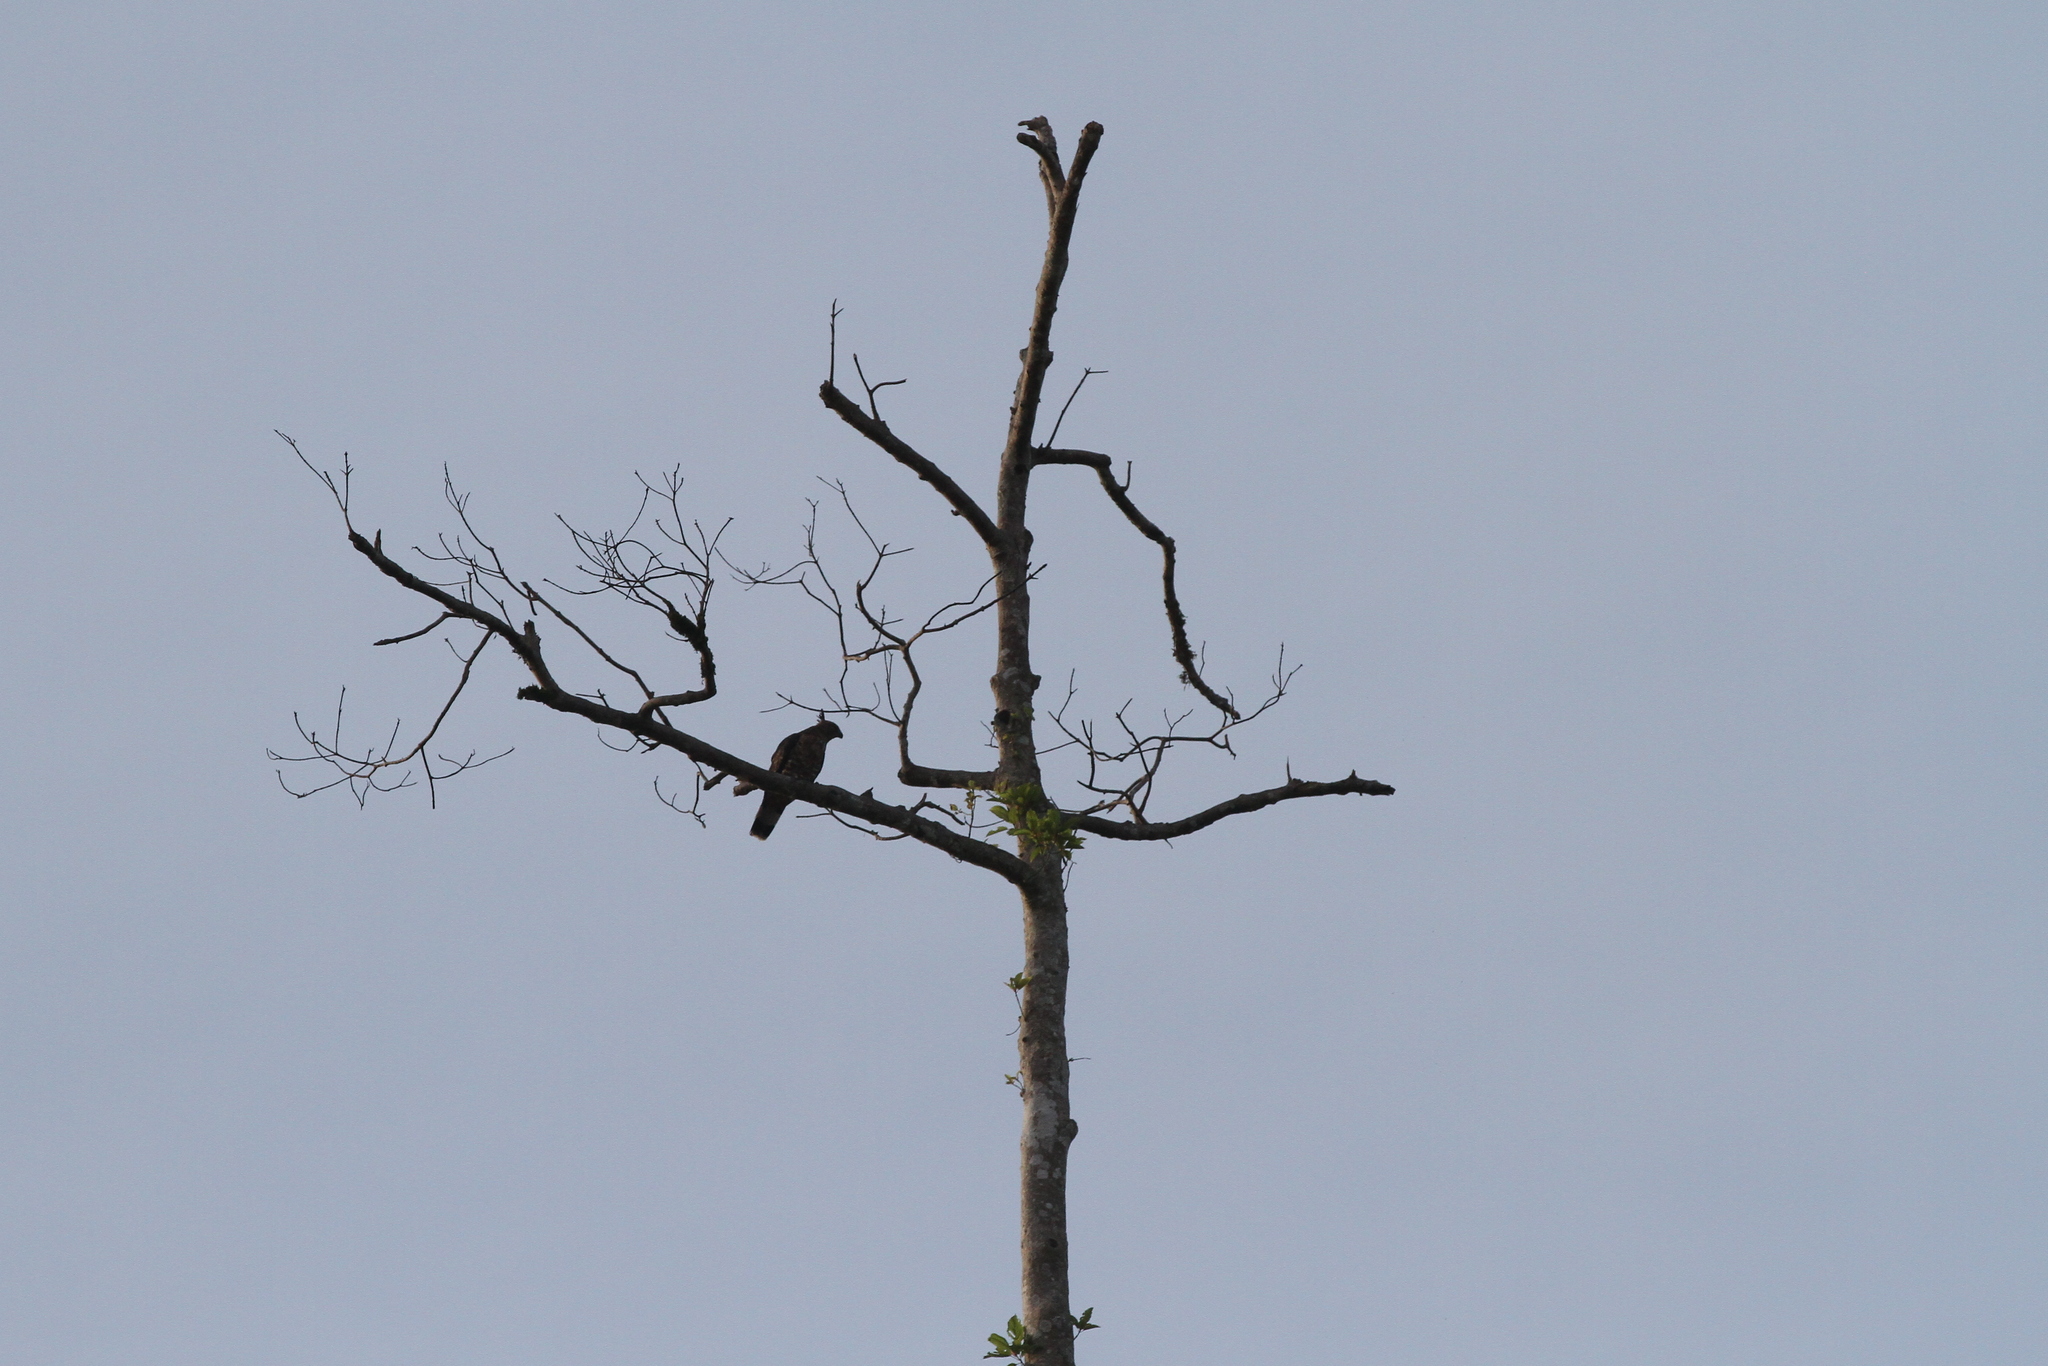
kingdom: Animalia
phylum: Chordata
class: Aves
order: Accipitriformes
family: Accipitridae
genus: Aviceda
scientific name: Aviceda jerdoni
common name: Jerdon's baza
